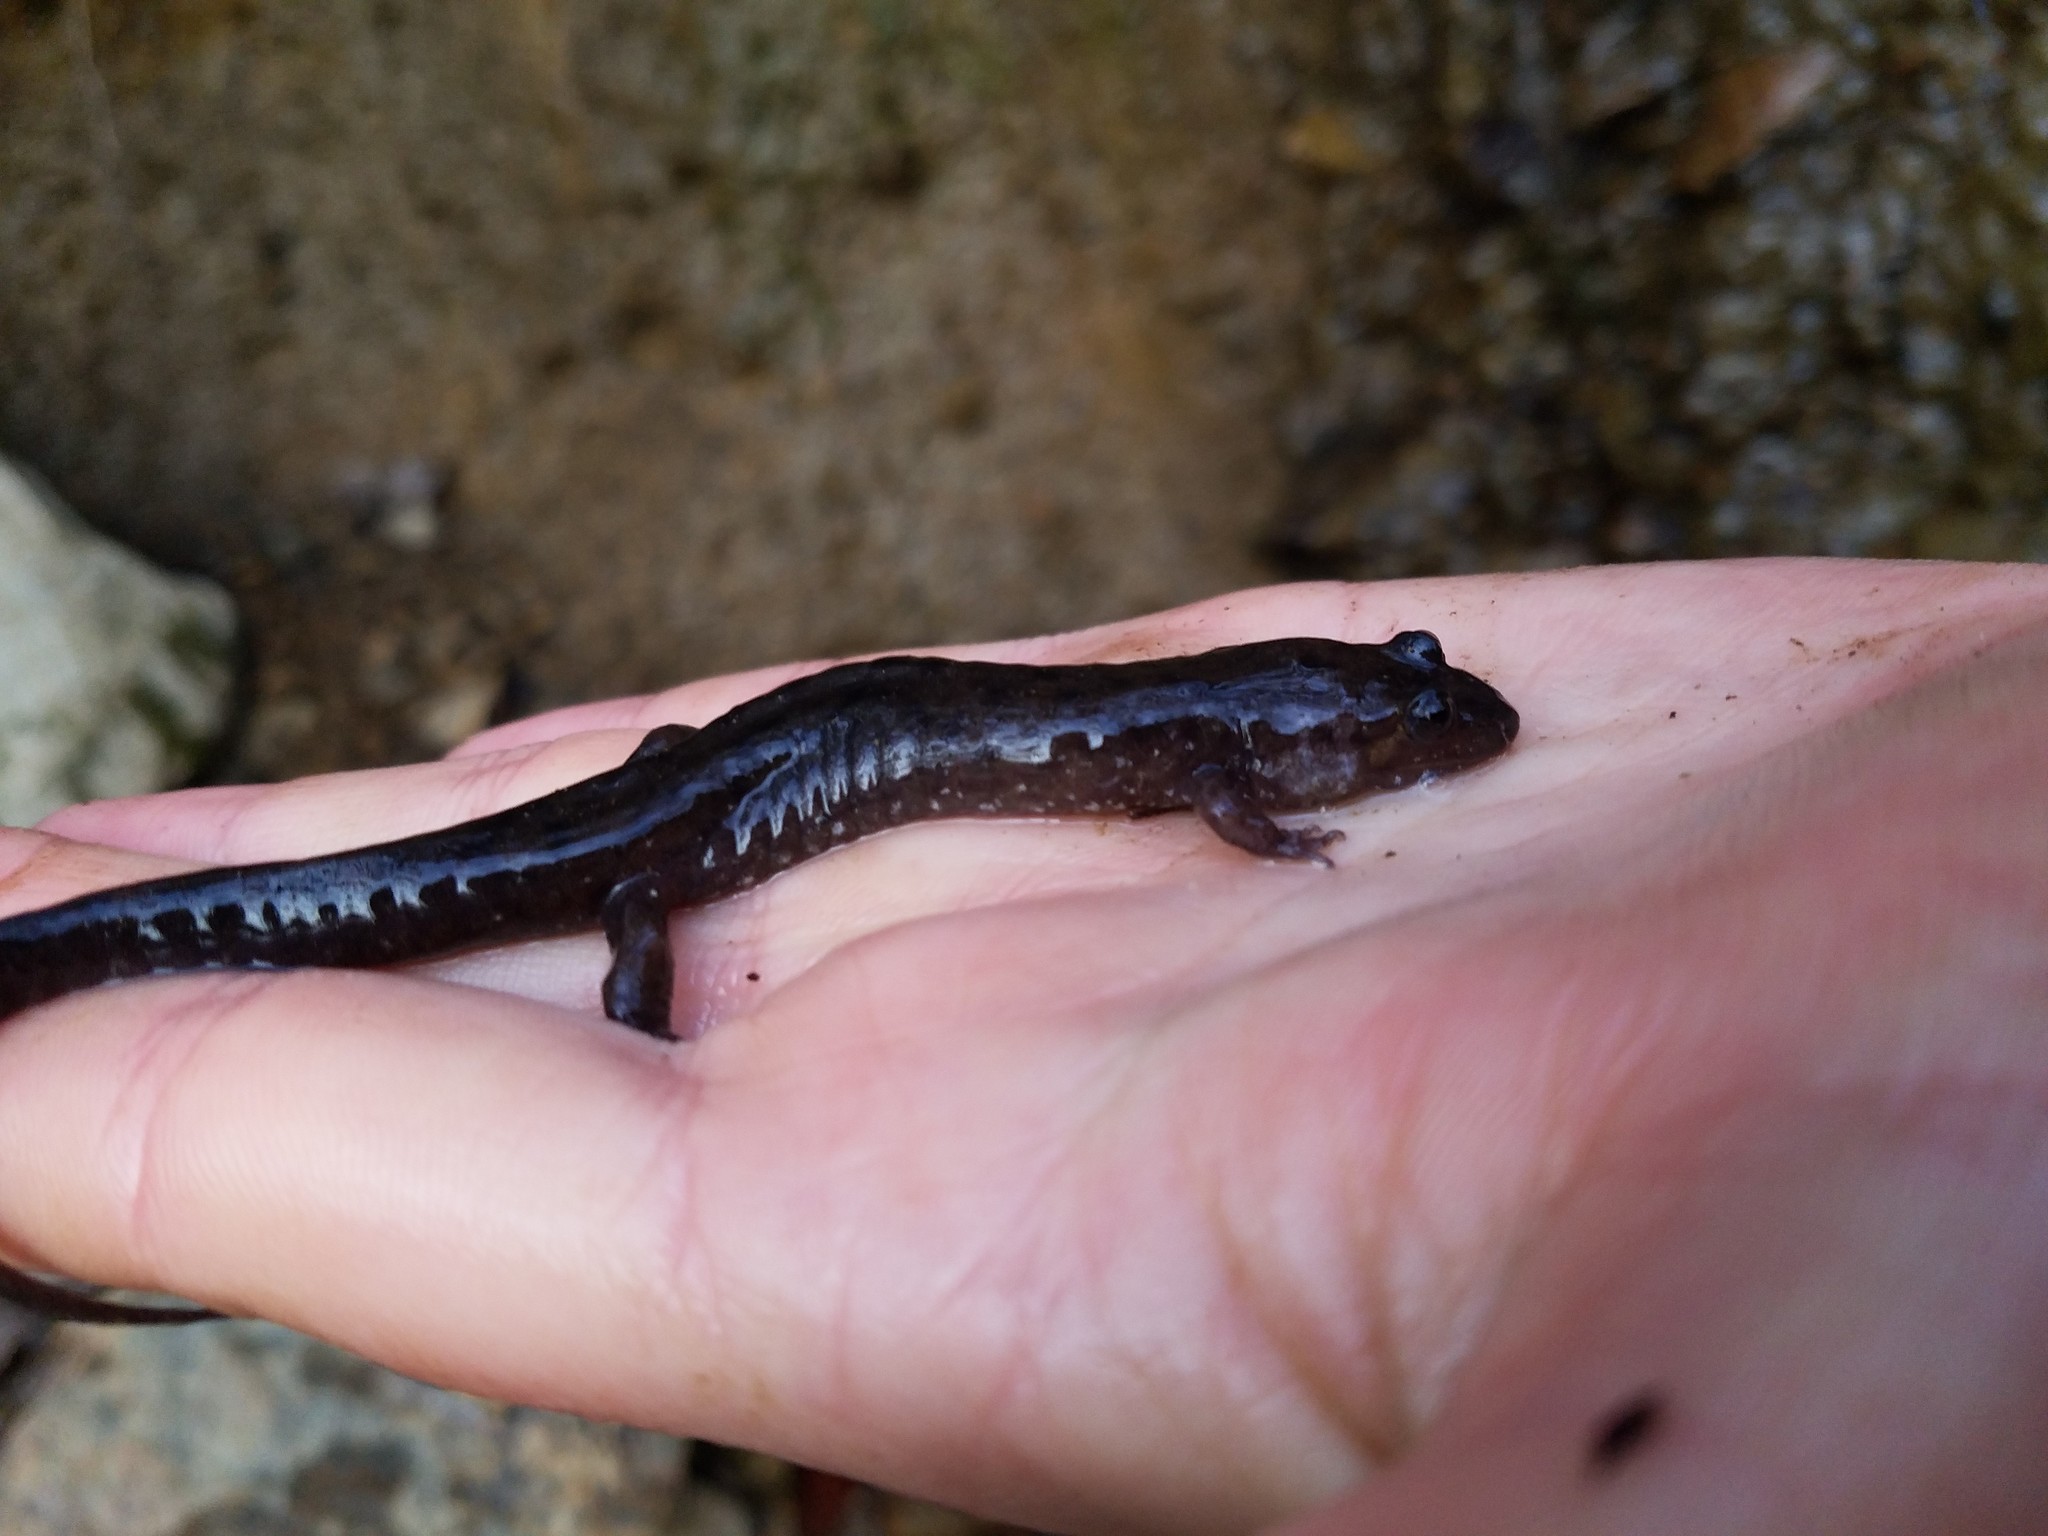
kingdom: Animalia
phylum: Chordata
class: Amphibia
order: Caudata
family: Plethodontidae
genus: Desmognathus
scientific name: Desmognathus monticola
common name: Seal salamander
